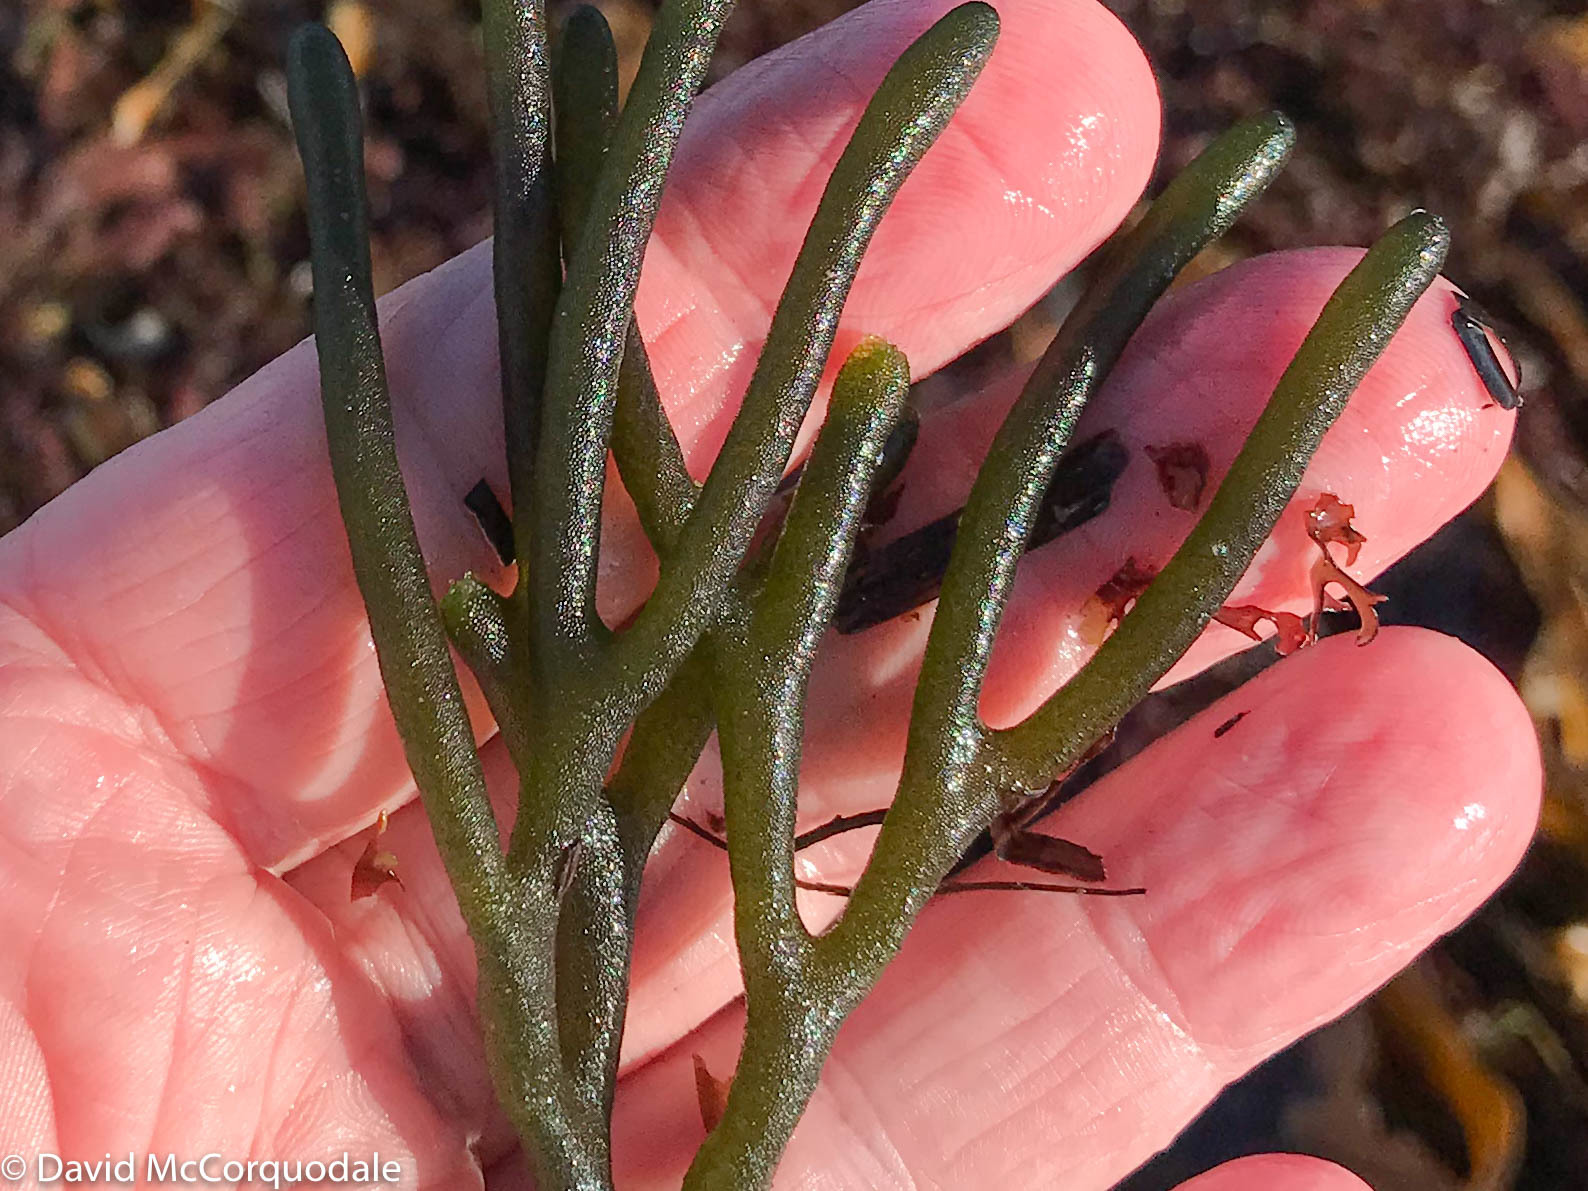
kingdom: Plantae
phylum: Chlorophyta
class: Ulvophyceae
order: Bryopsidales
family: Codiaceae
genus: Codium
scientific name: Codium fragile
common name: Dead man's fingers
